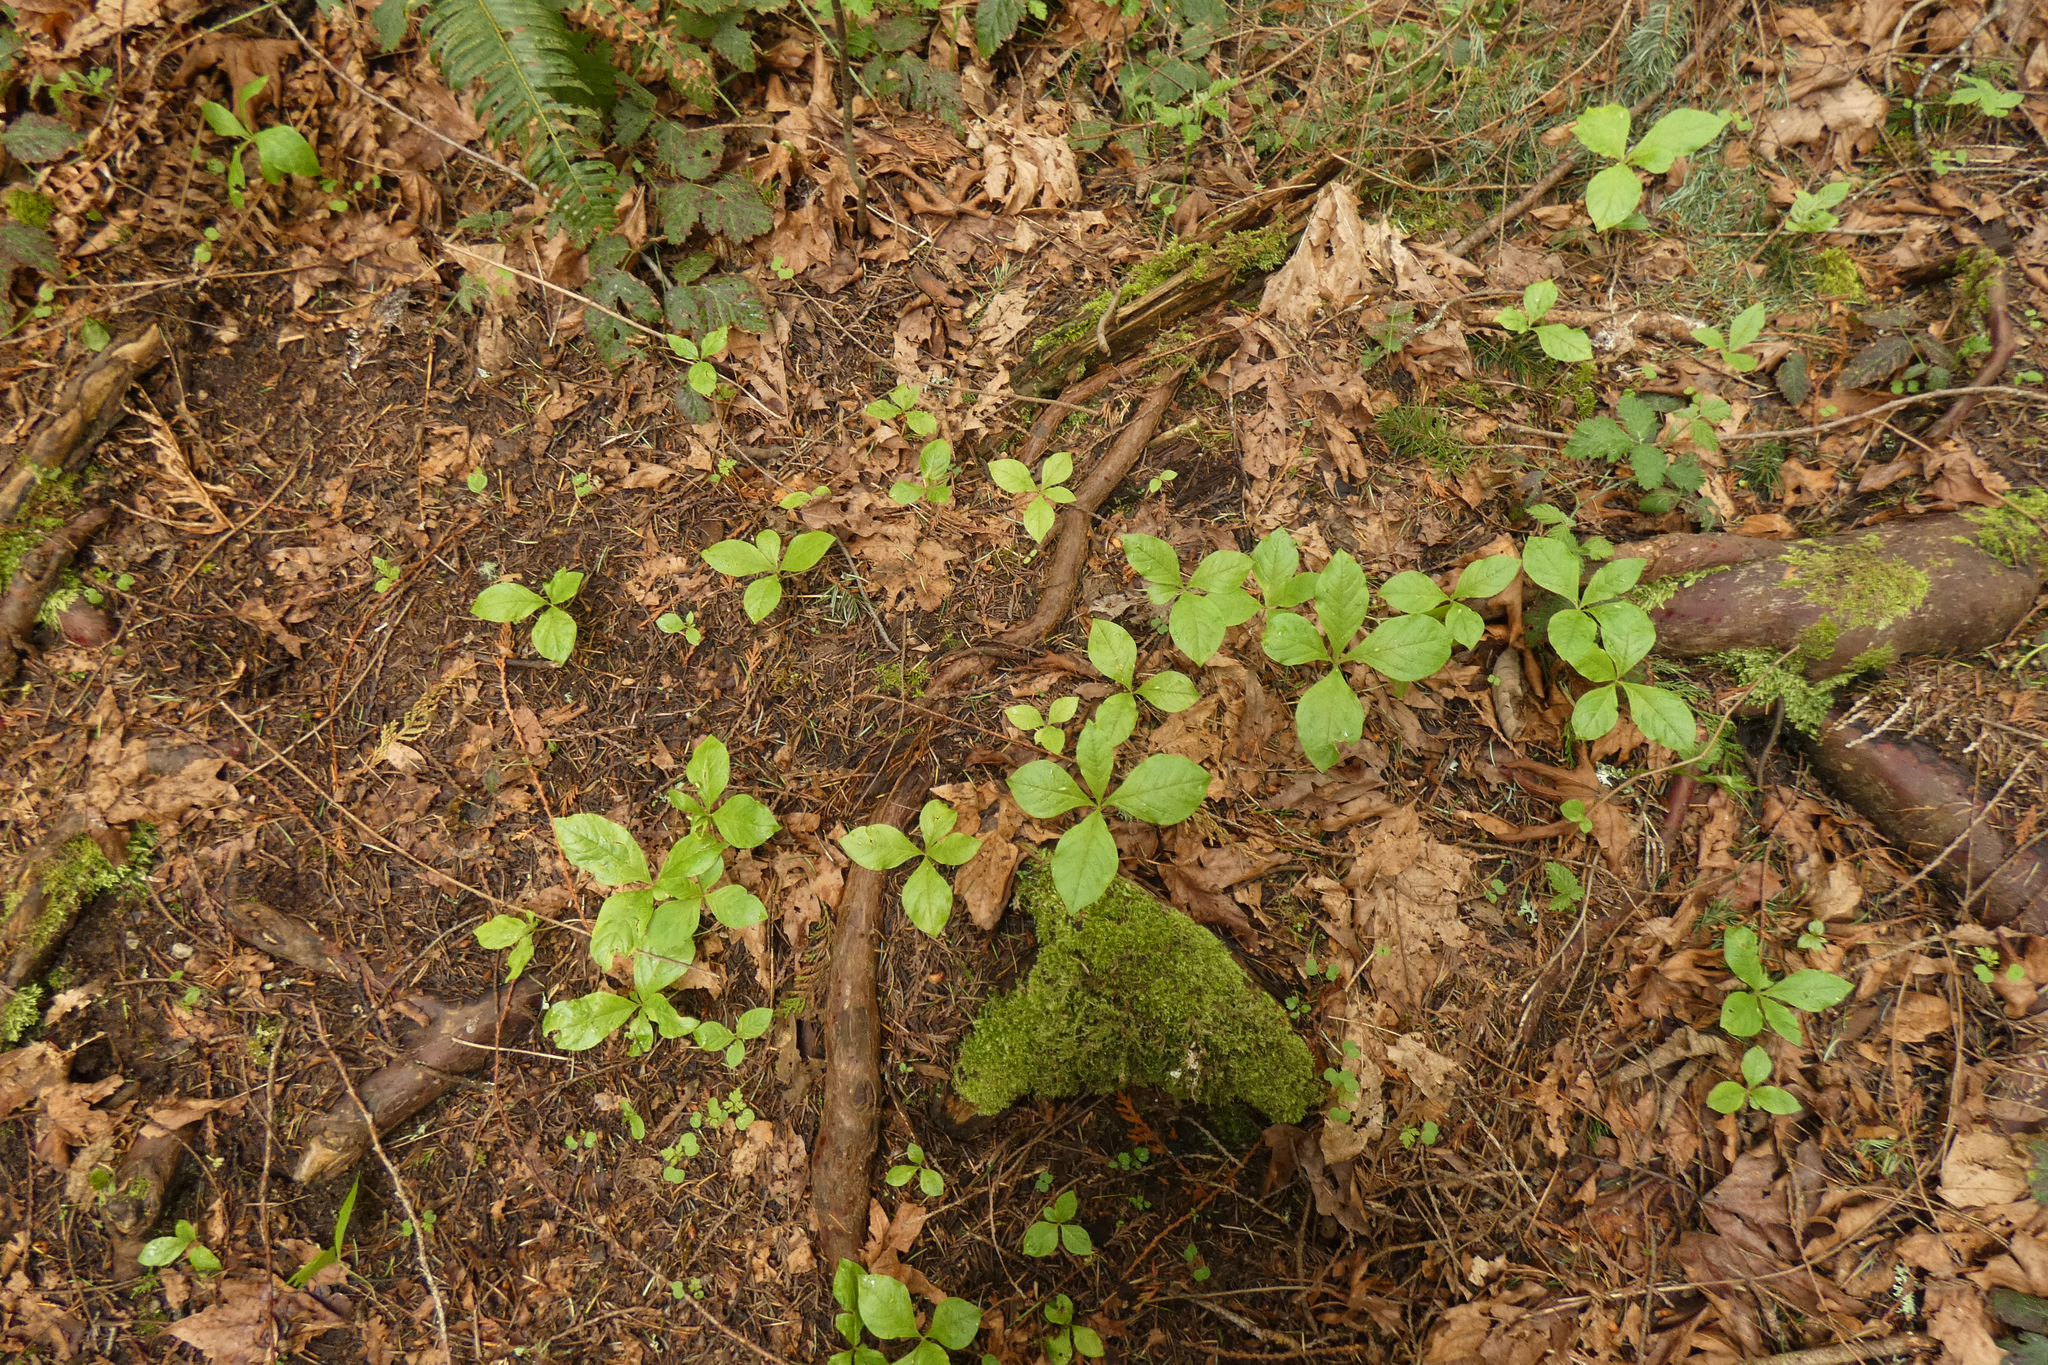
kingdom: Plantae
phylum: Tracheophyta
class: Magnoliopsida
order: Cornales
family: Cornaceae
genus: Cornus
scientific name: Cornus unalaschkensis
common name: Alaska bunchberry
